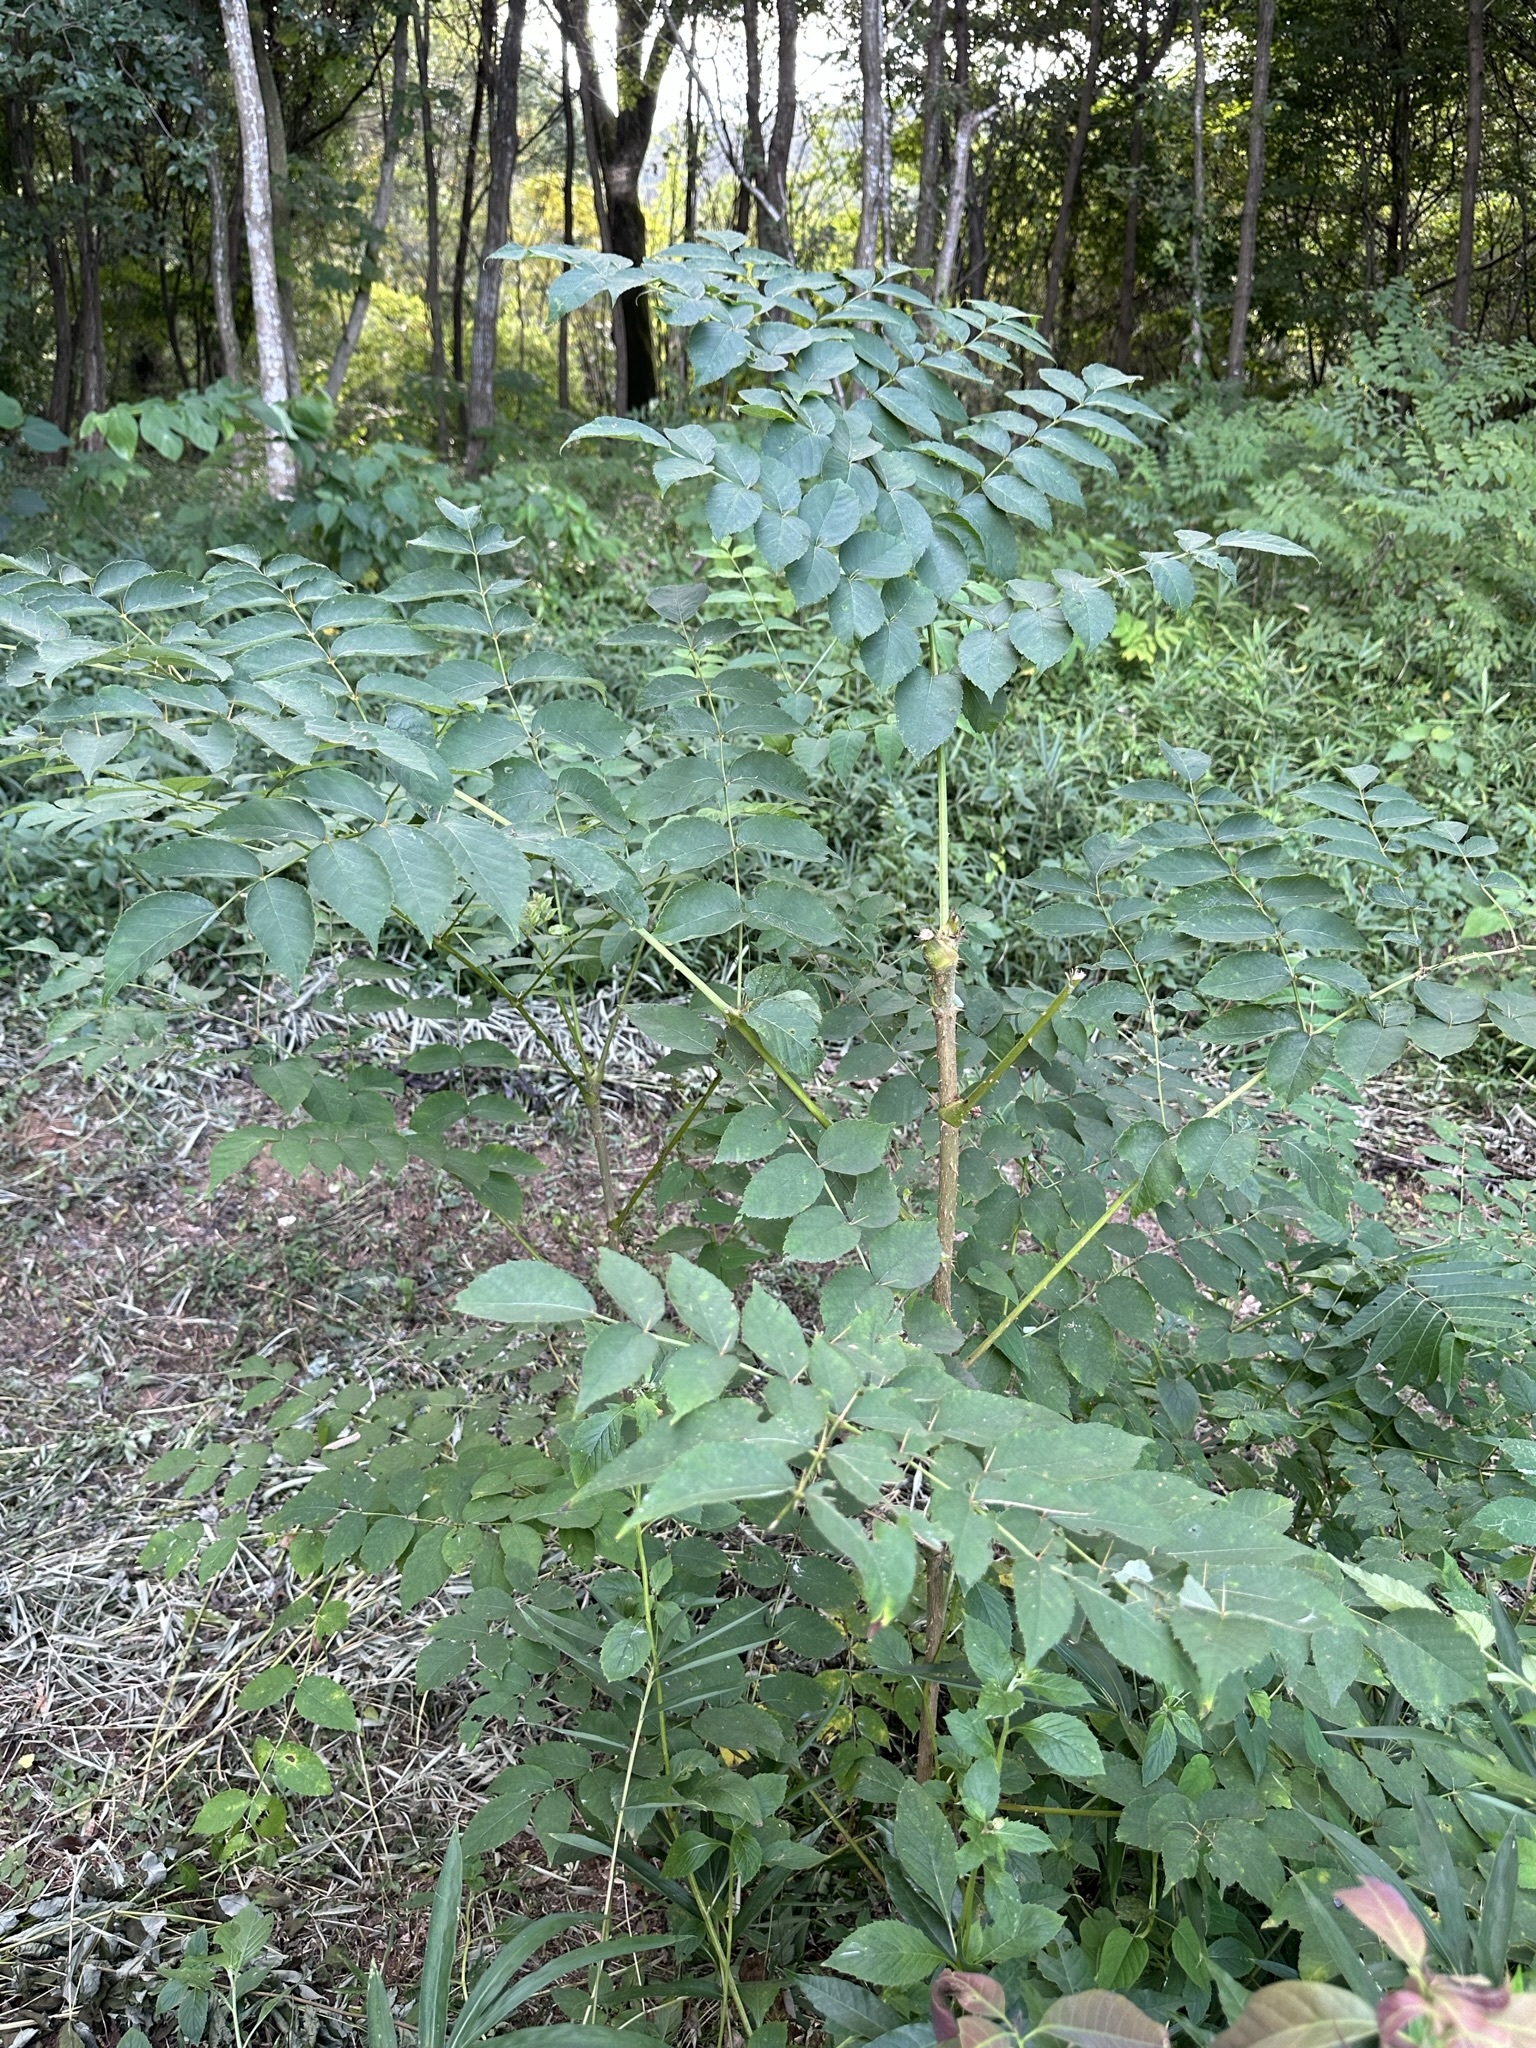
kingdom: Plantae
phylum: Tracheophyta
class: Magnoliopsida
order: Apiales
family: Araliaceae
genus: Aralia
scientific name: Aralia elata
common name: Japanese angelica-tree
